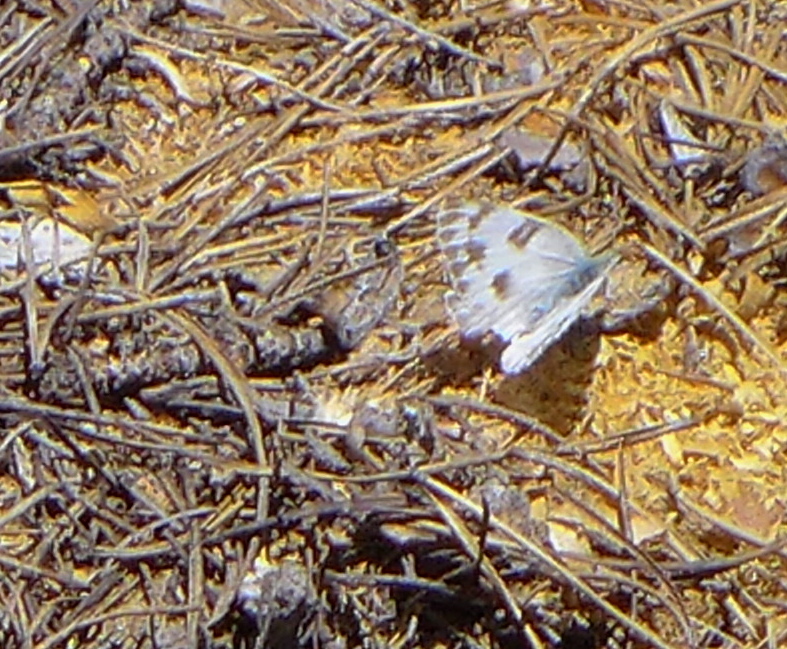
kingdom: Animalia
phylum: Arthropoda
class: Insecta
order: Lepidoptera
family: Pieridae
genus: Pontia
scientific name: Pontia protodice
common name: Checkered white
